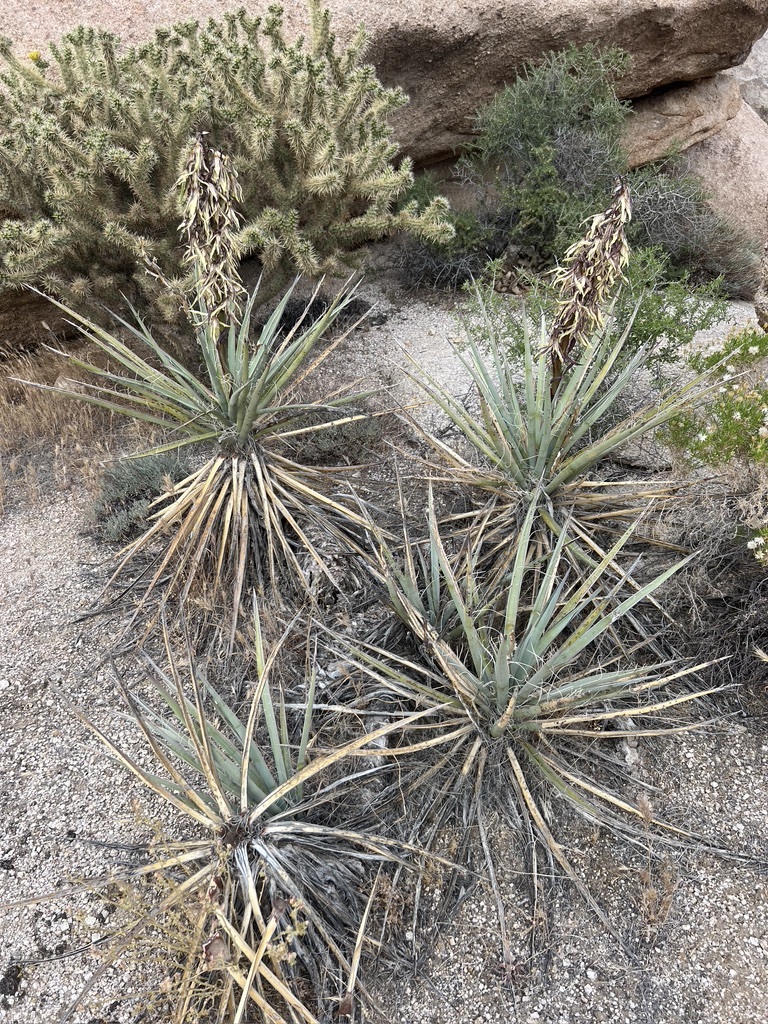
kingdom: Plantae
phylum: Tracheophyta
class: Liliopsida
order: Asparagales
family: Asparagaceae
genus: Yucca
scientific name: Yucca baccata
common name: Banana yucca
